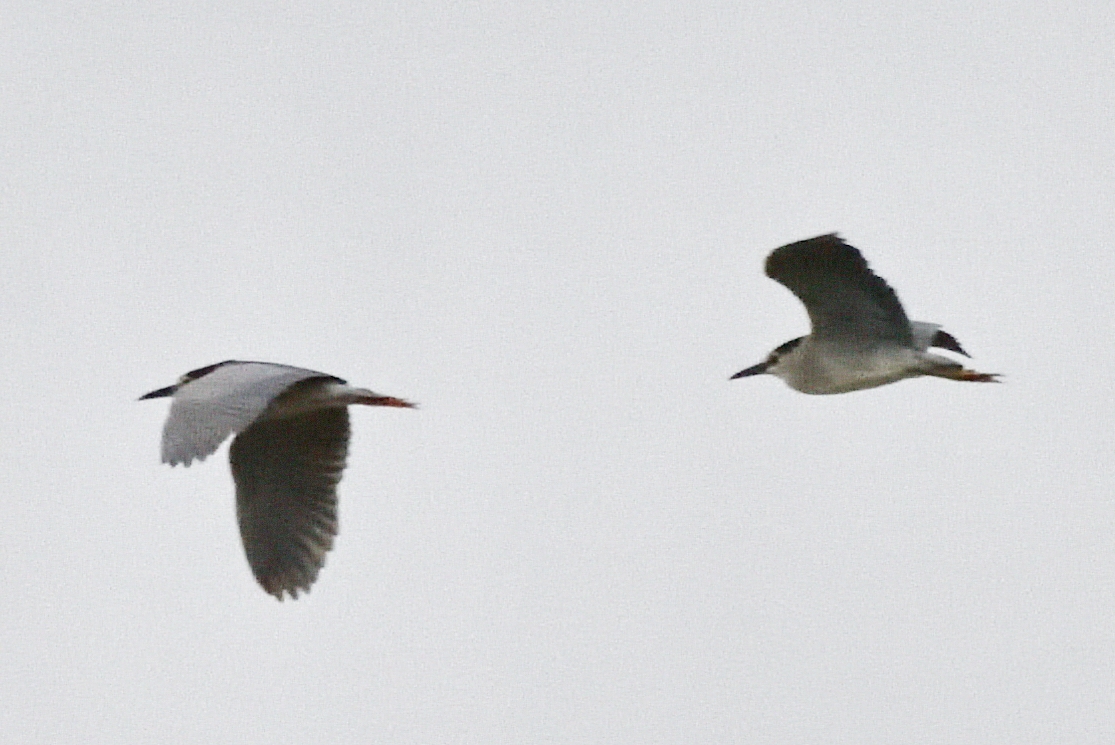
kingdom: Animalia
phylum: Chordata
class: Aves
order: Pelecaniformes
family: Ardeidae
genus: Nycticorax
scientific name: Nycticorax nycticorax
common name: Black-crowned night heron
